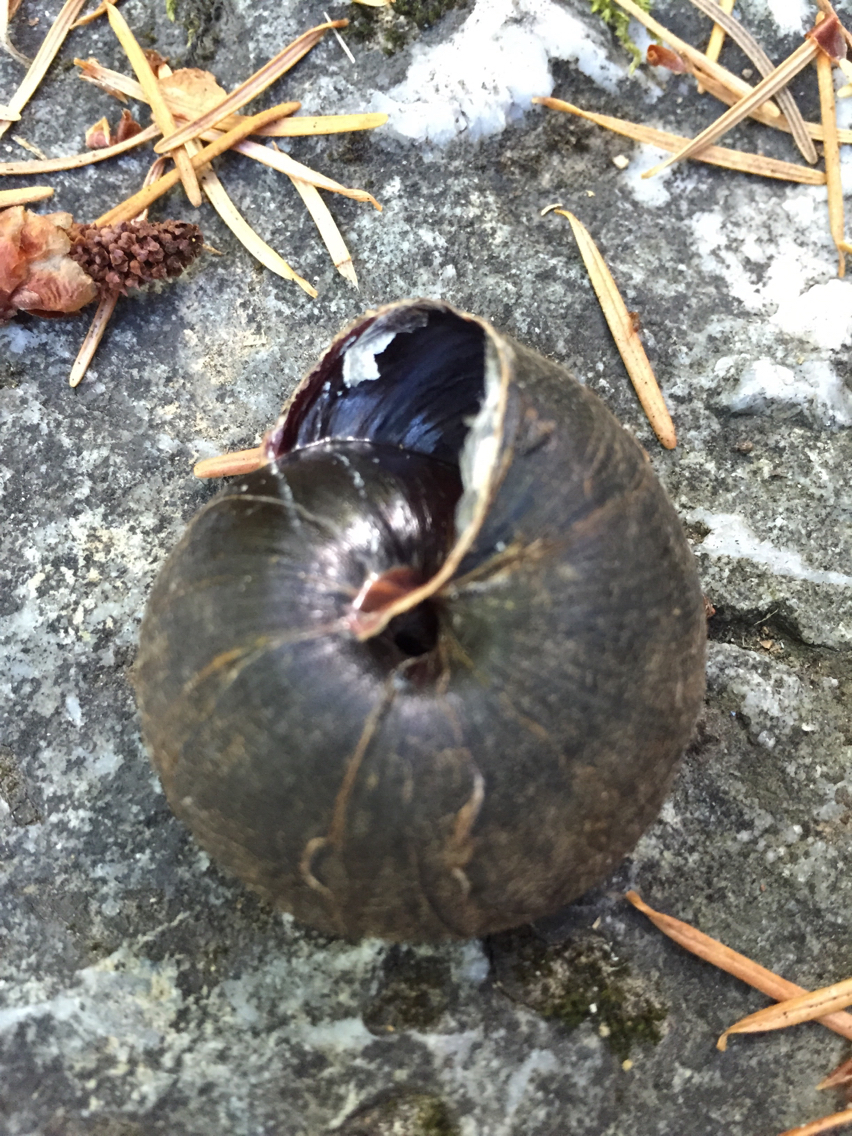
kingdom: Animalia
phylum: Mollusca
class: Gastropoda
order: Stylommatophora
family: Xanthonychidae
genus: Monadenia
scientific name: Monadenia infumata
